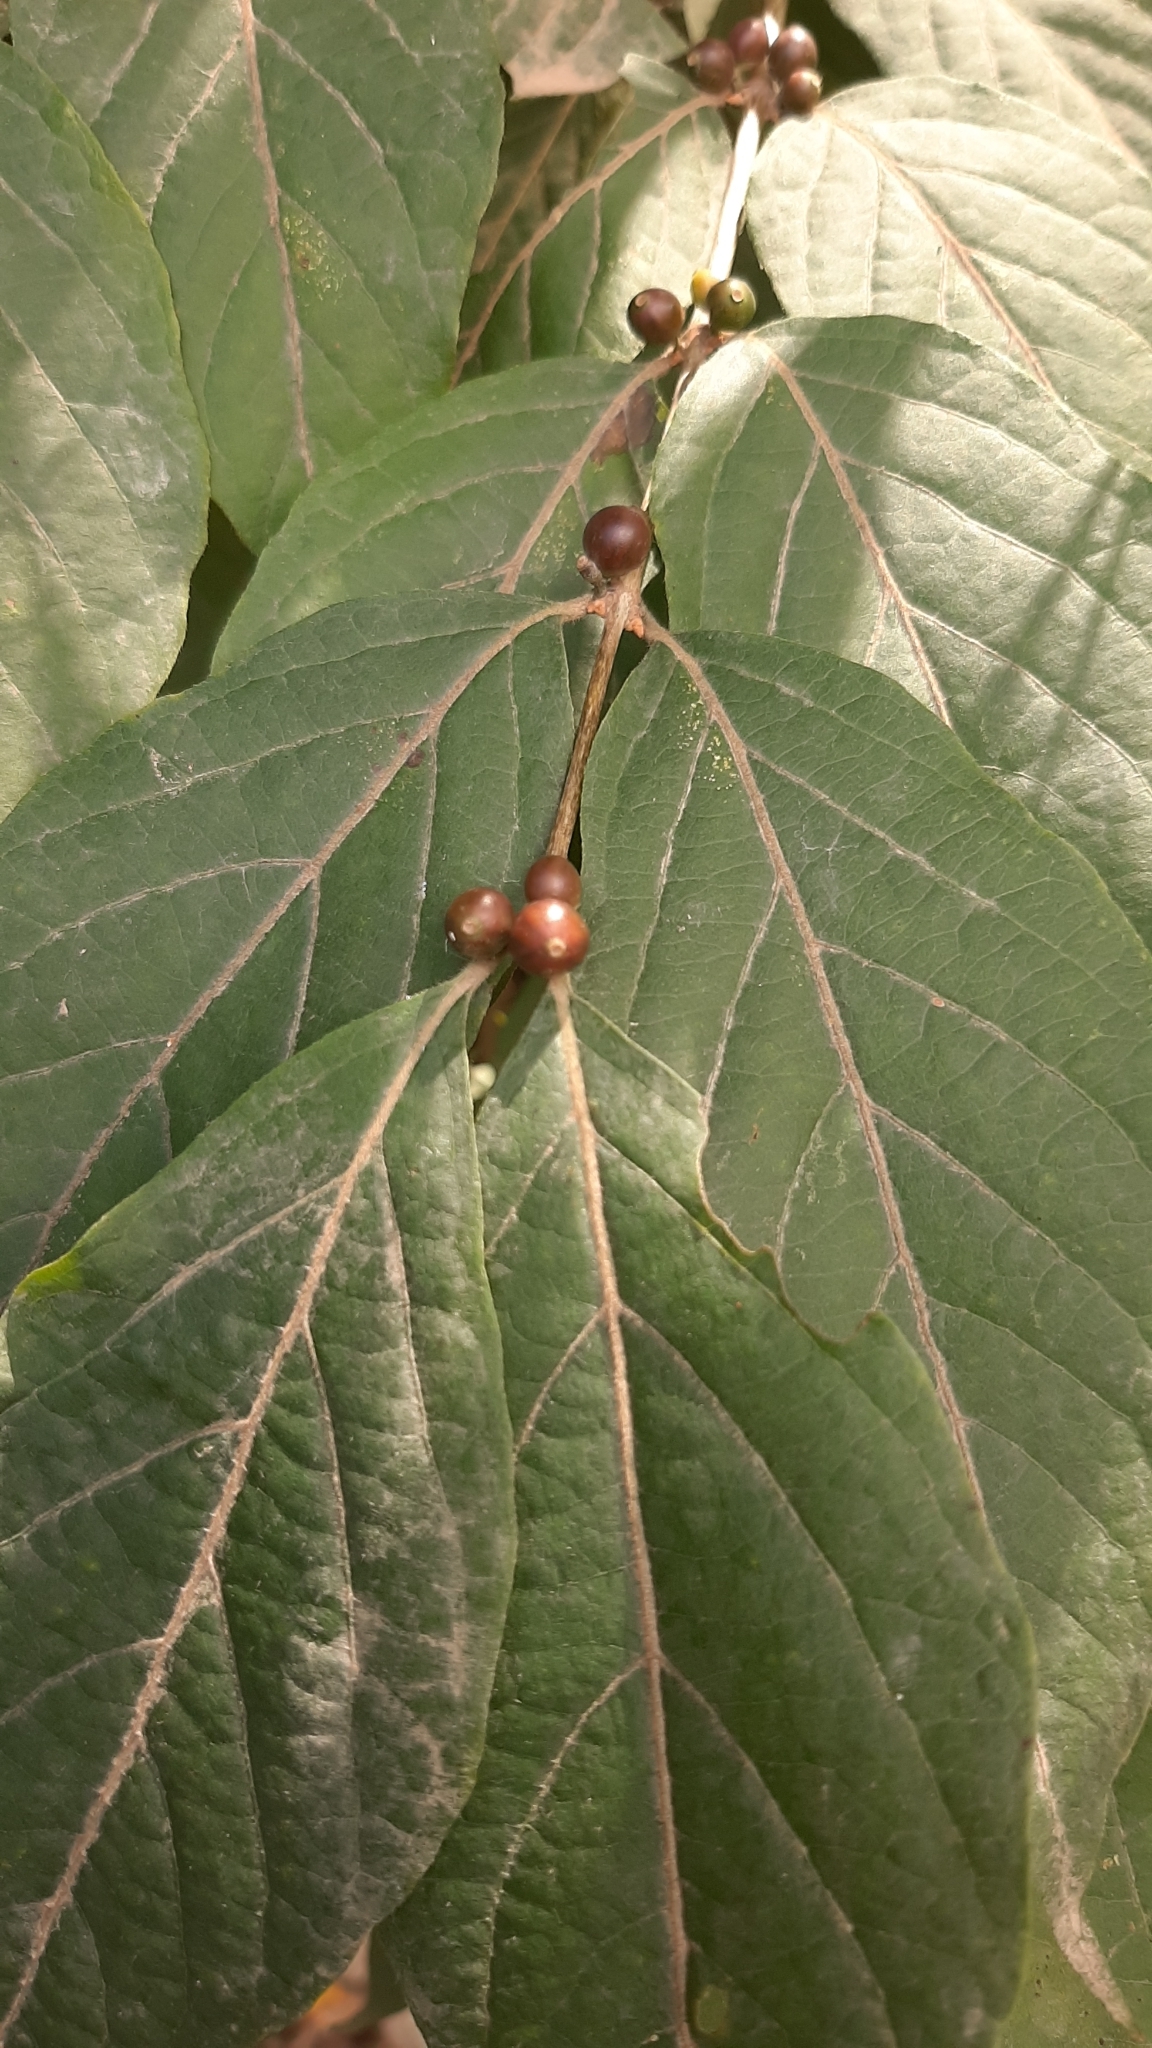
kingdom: Plantae
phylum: Tracheophyta
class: Magnoliopsida
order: Dipsacales
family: Caprifoliaceae
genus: Lonicera
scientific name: Lonicera maackii
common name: Amur honeysuckle
